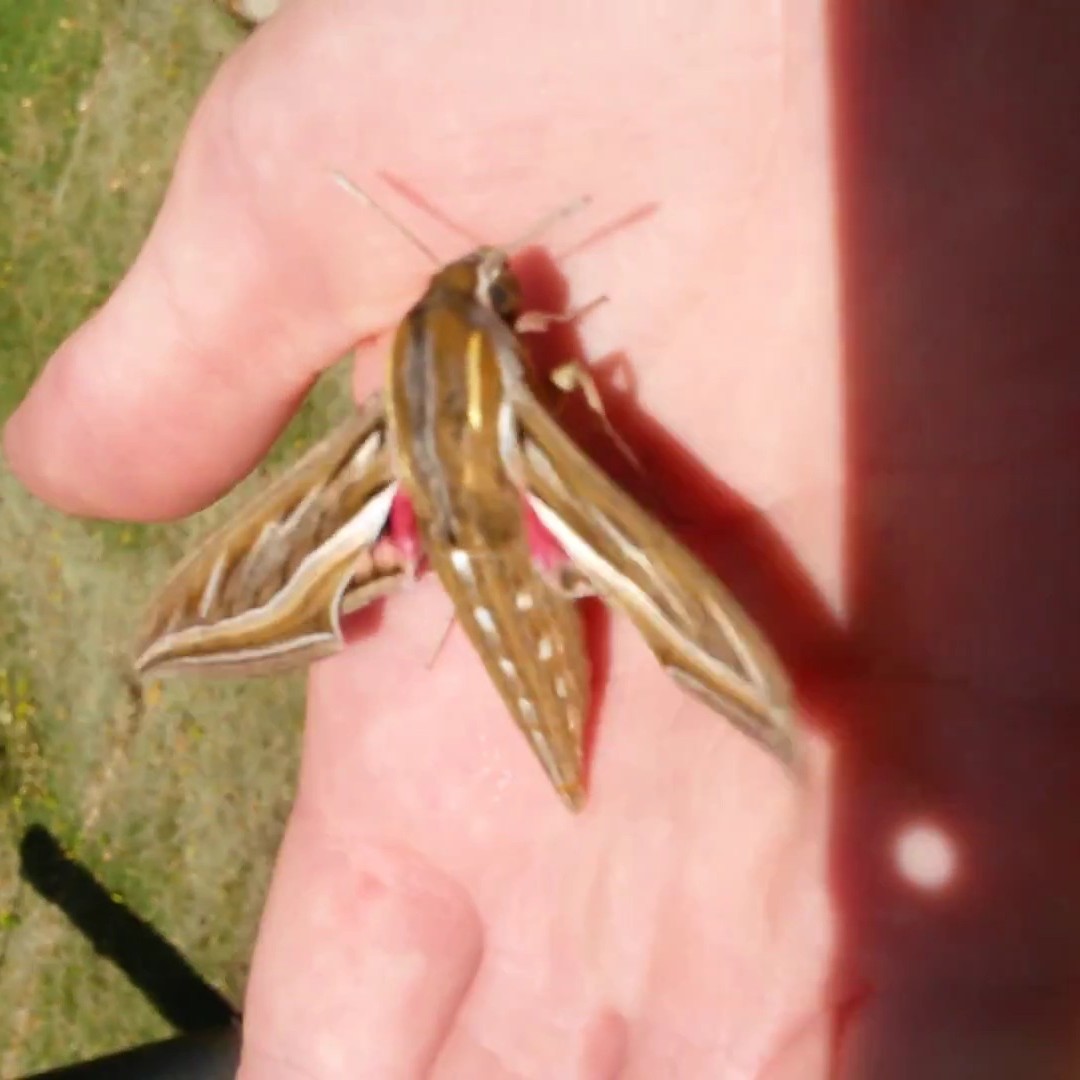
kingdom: Animalia
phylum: Arthropoda
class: Insecta
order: Lepidoptera
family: Sphingidae
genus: Hippotion
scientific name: Hippotion celerio
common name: Silver-striped hawk-moth
